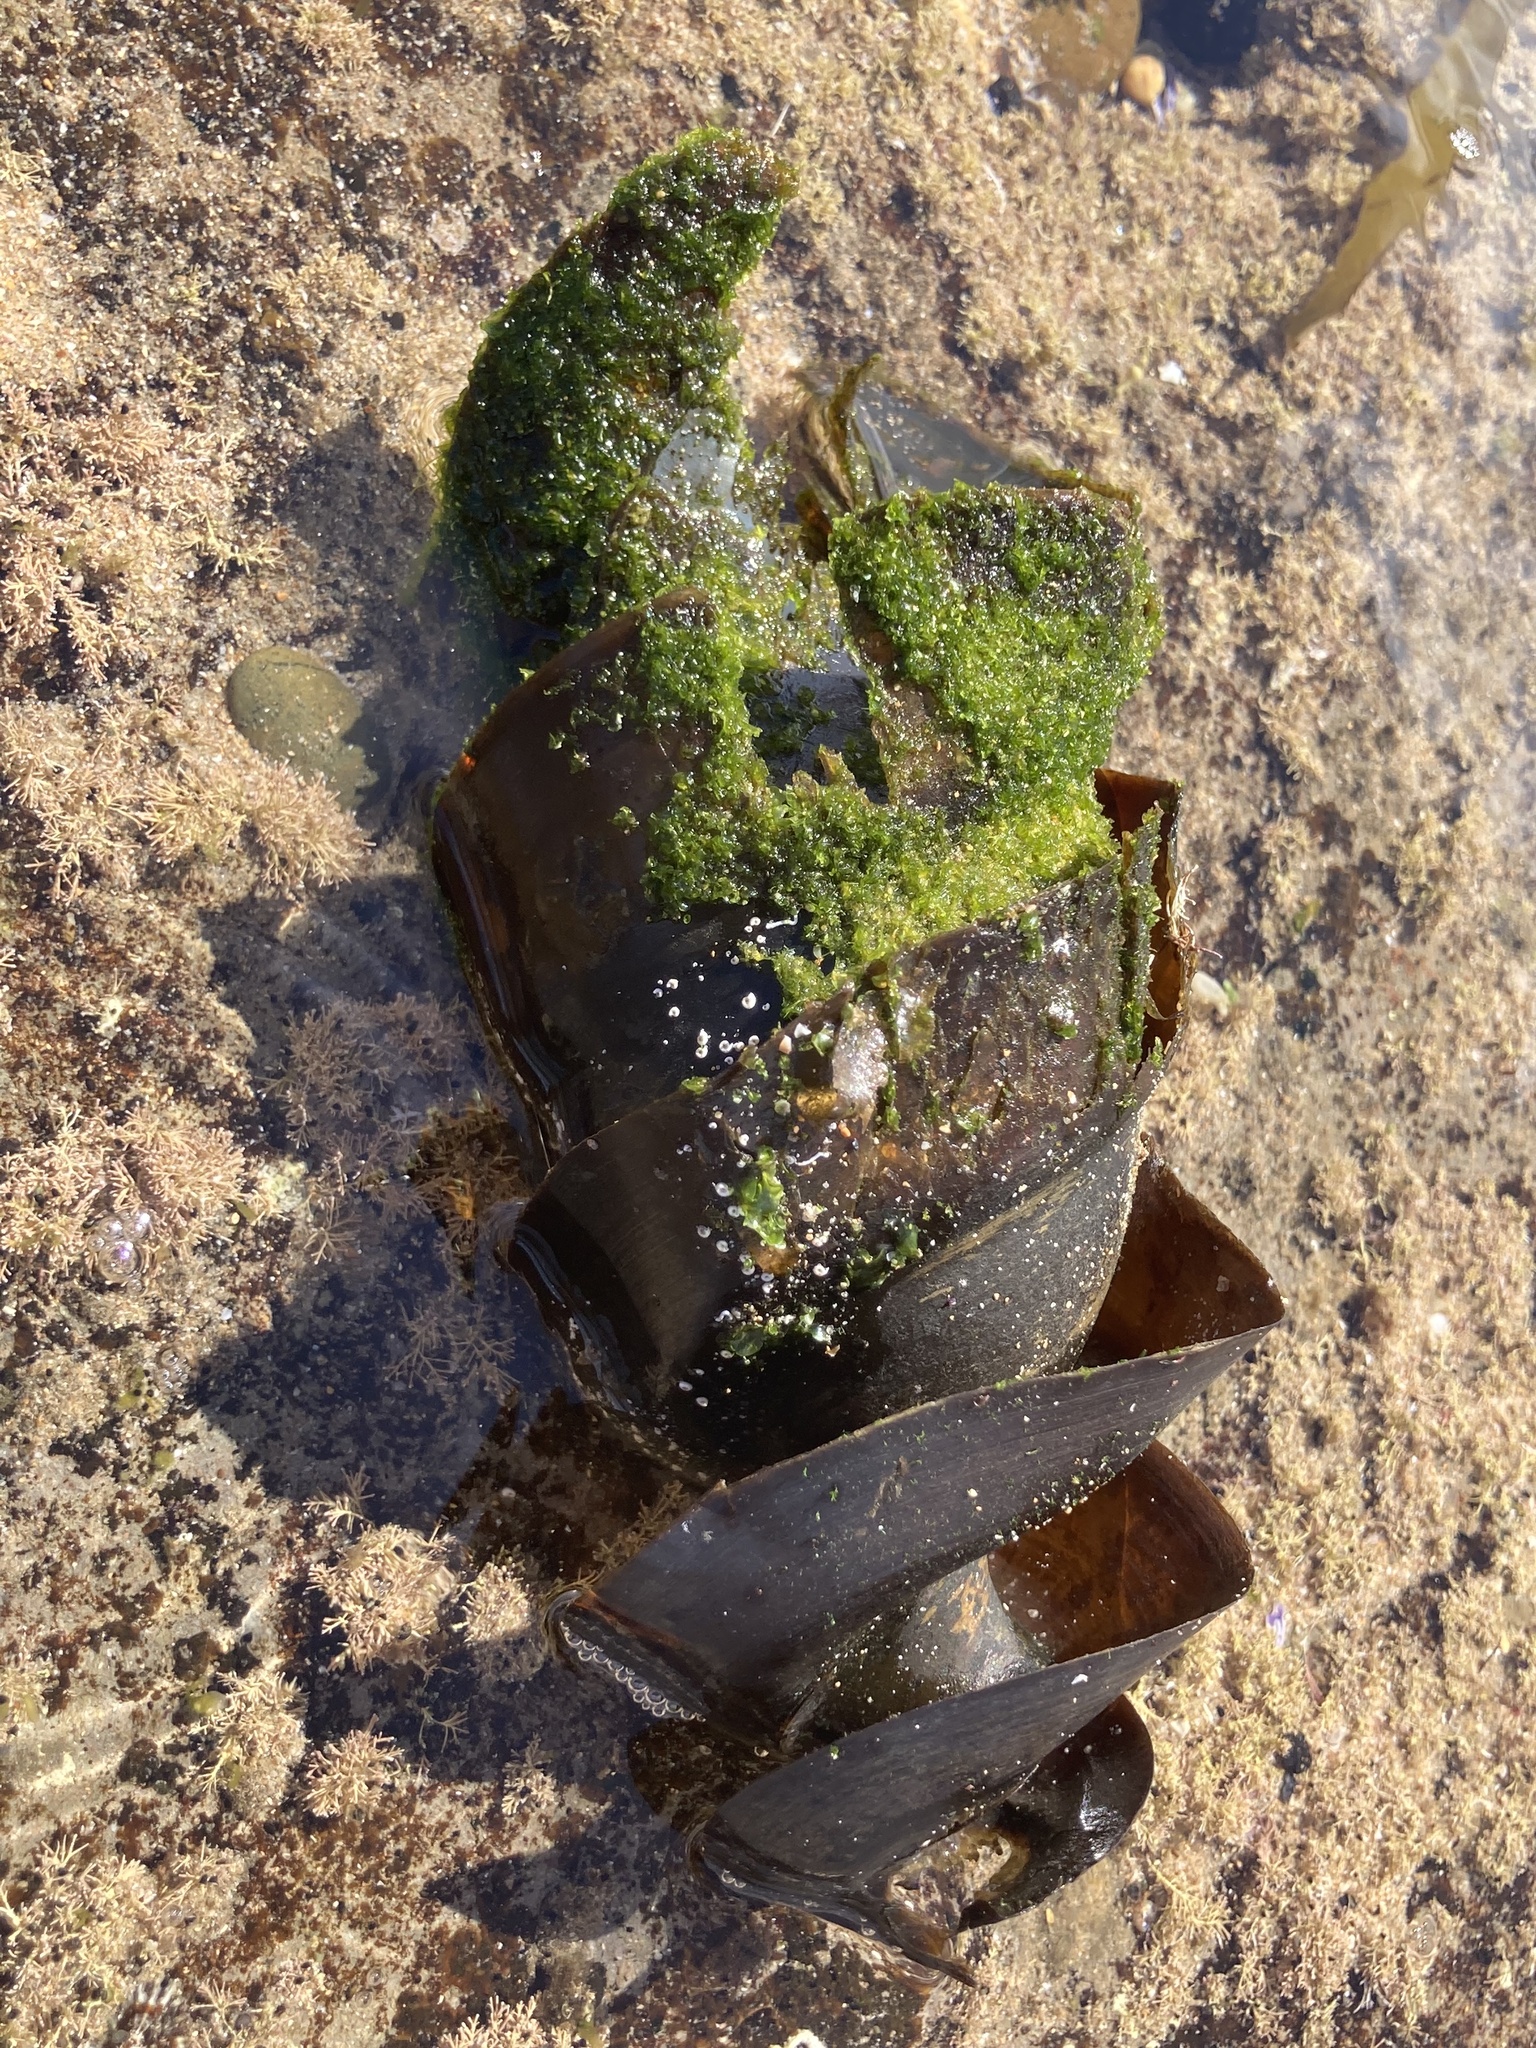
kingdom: Animalia
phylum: Chordata
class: Elasmobranchii
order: Heterodontiformes
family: Heterodontidae
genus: Heterodontus
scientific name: Heterodontus portusjacksoni
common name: Port jackson shark
